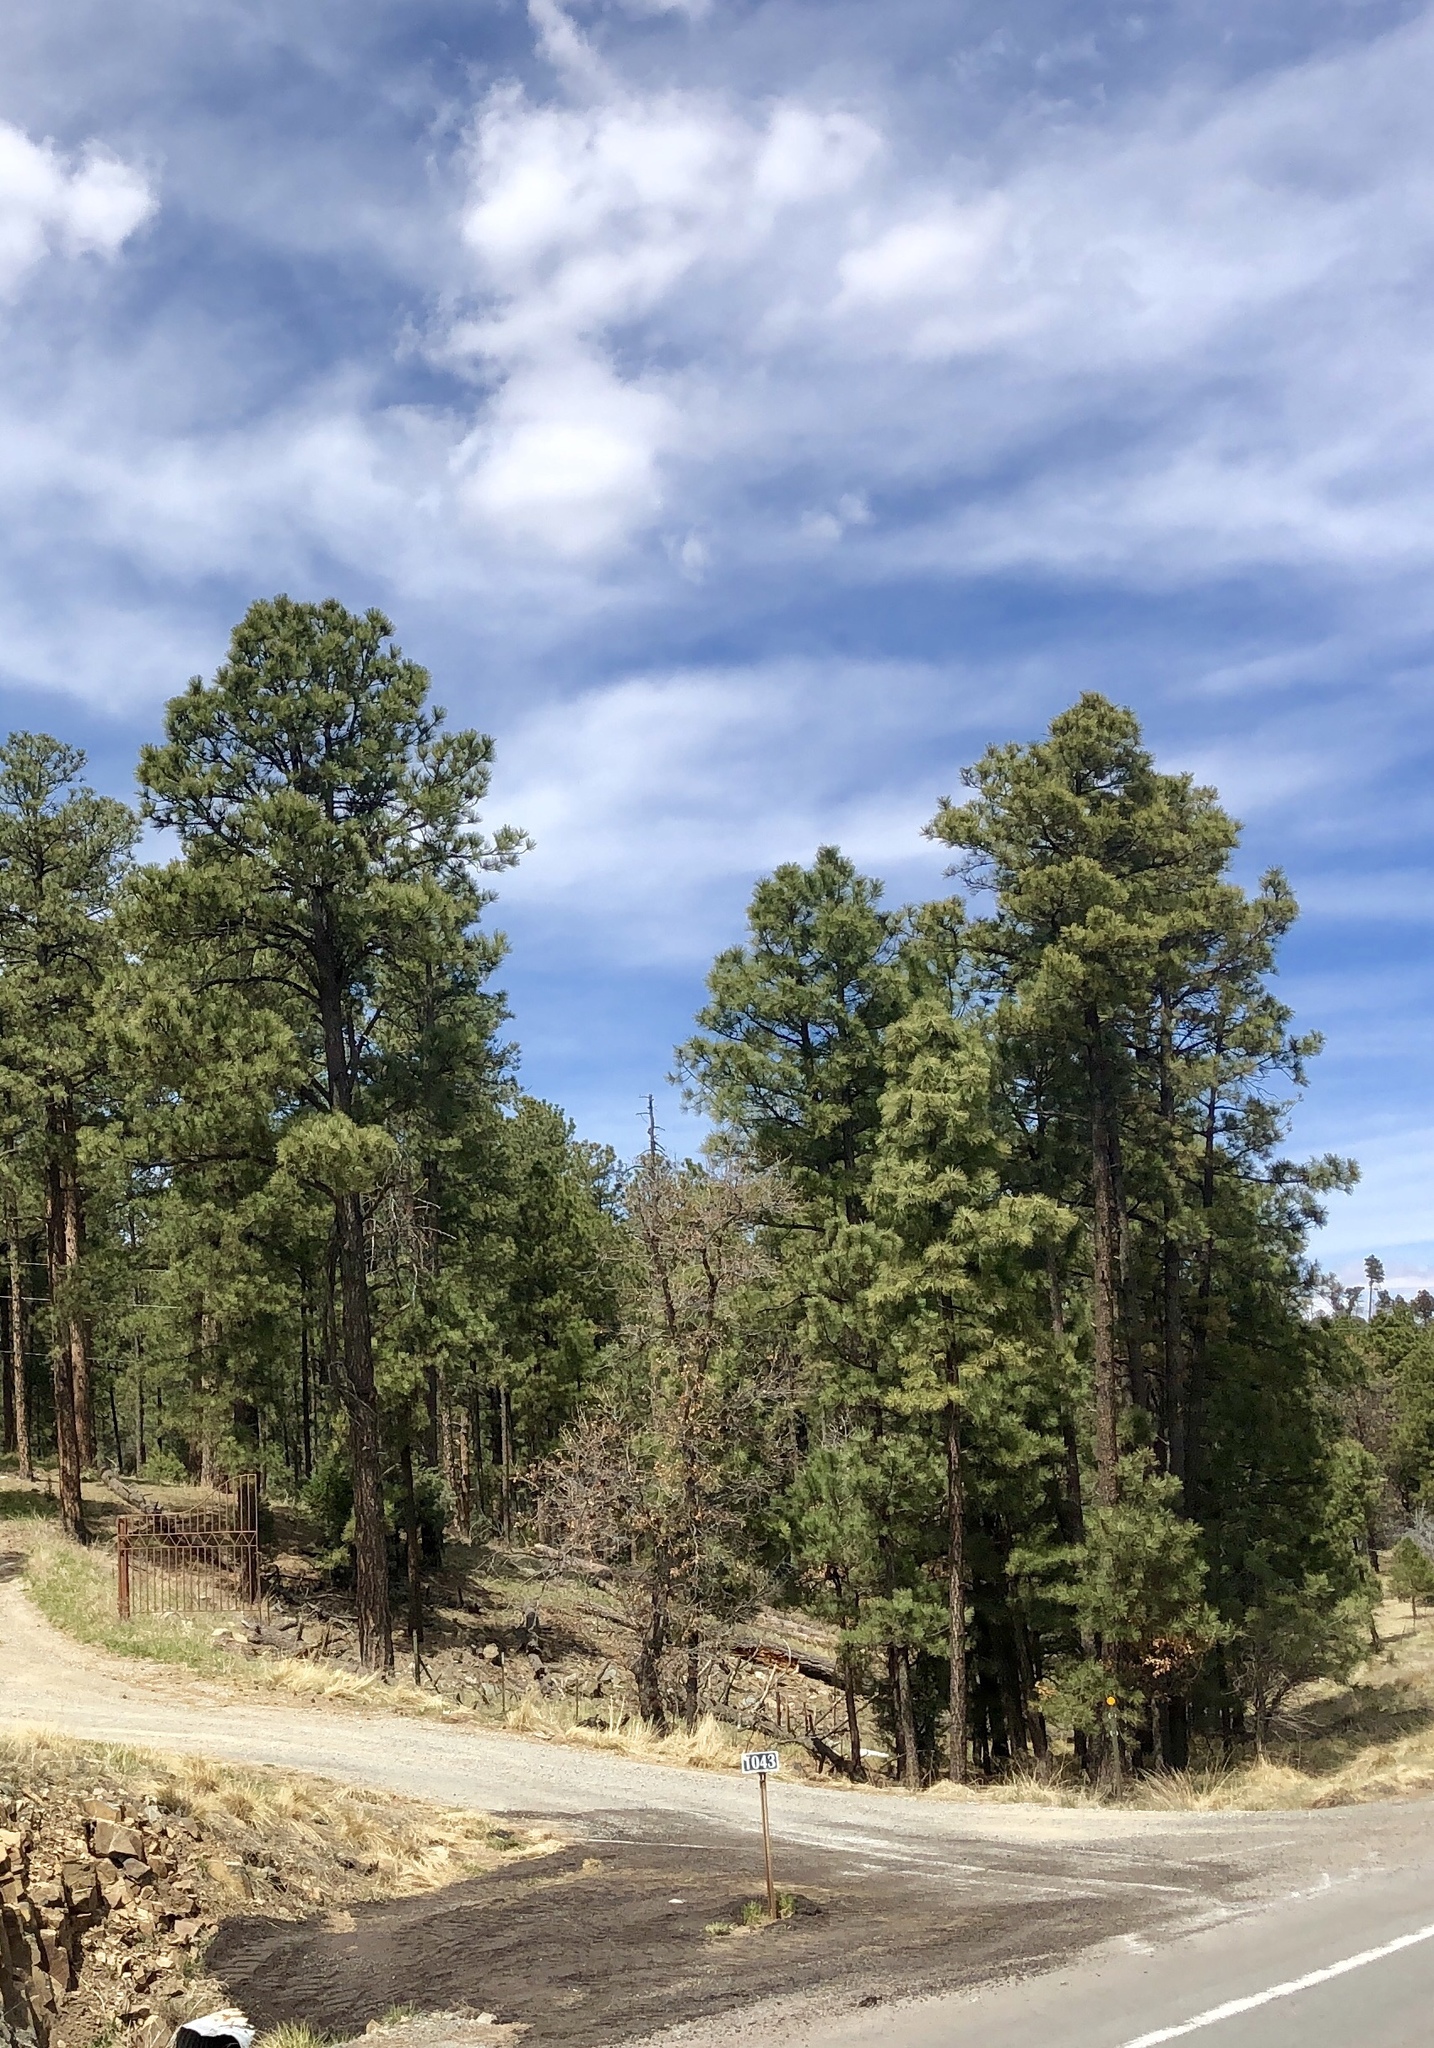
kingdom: Plantae
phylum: Tracheophyta
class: Pinopsida
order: Pinales
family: Pinaceae
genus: Pinus
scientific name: Pinus ponderosa
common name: Western yellow-pine
